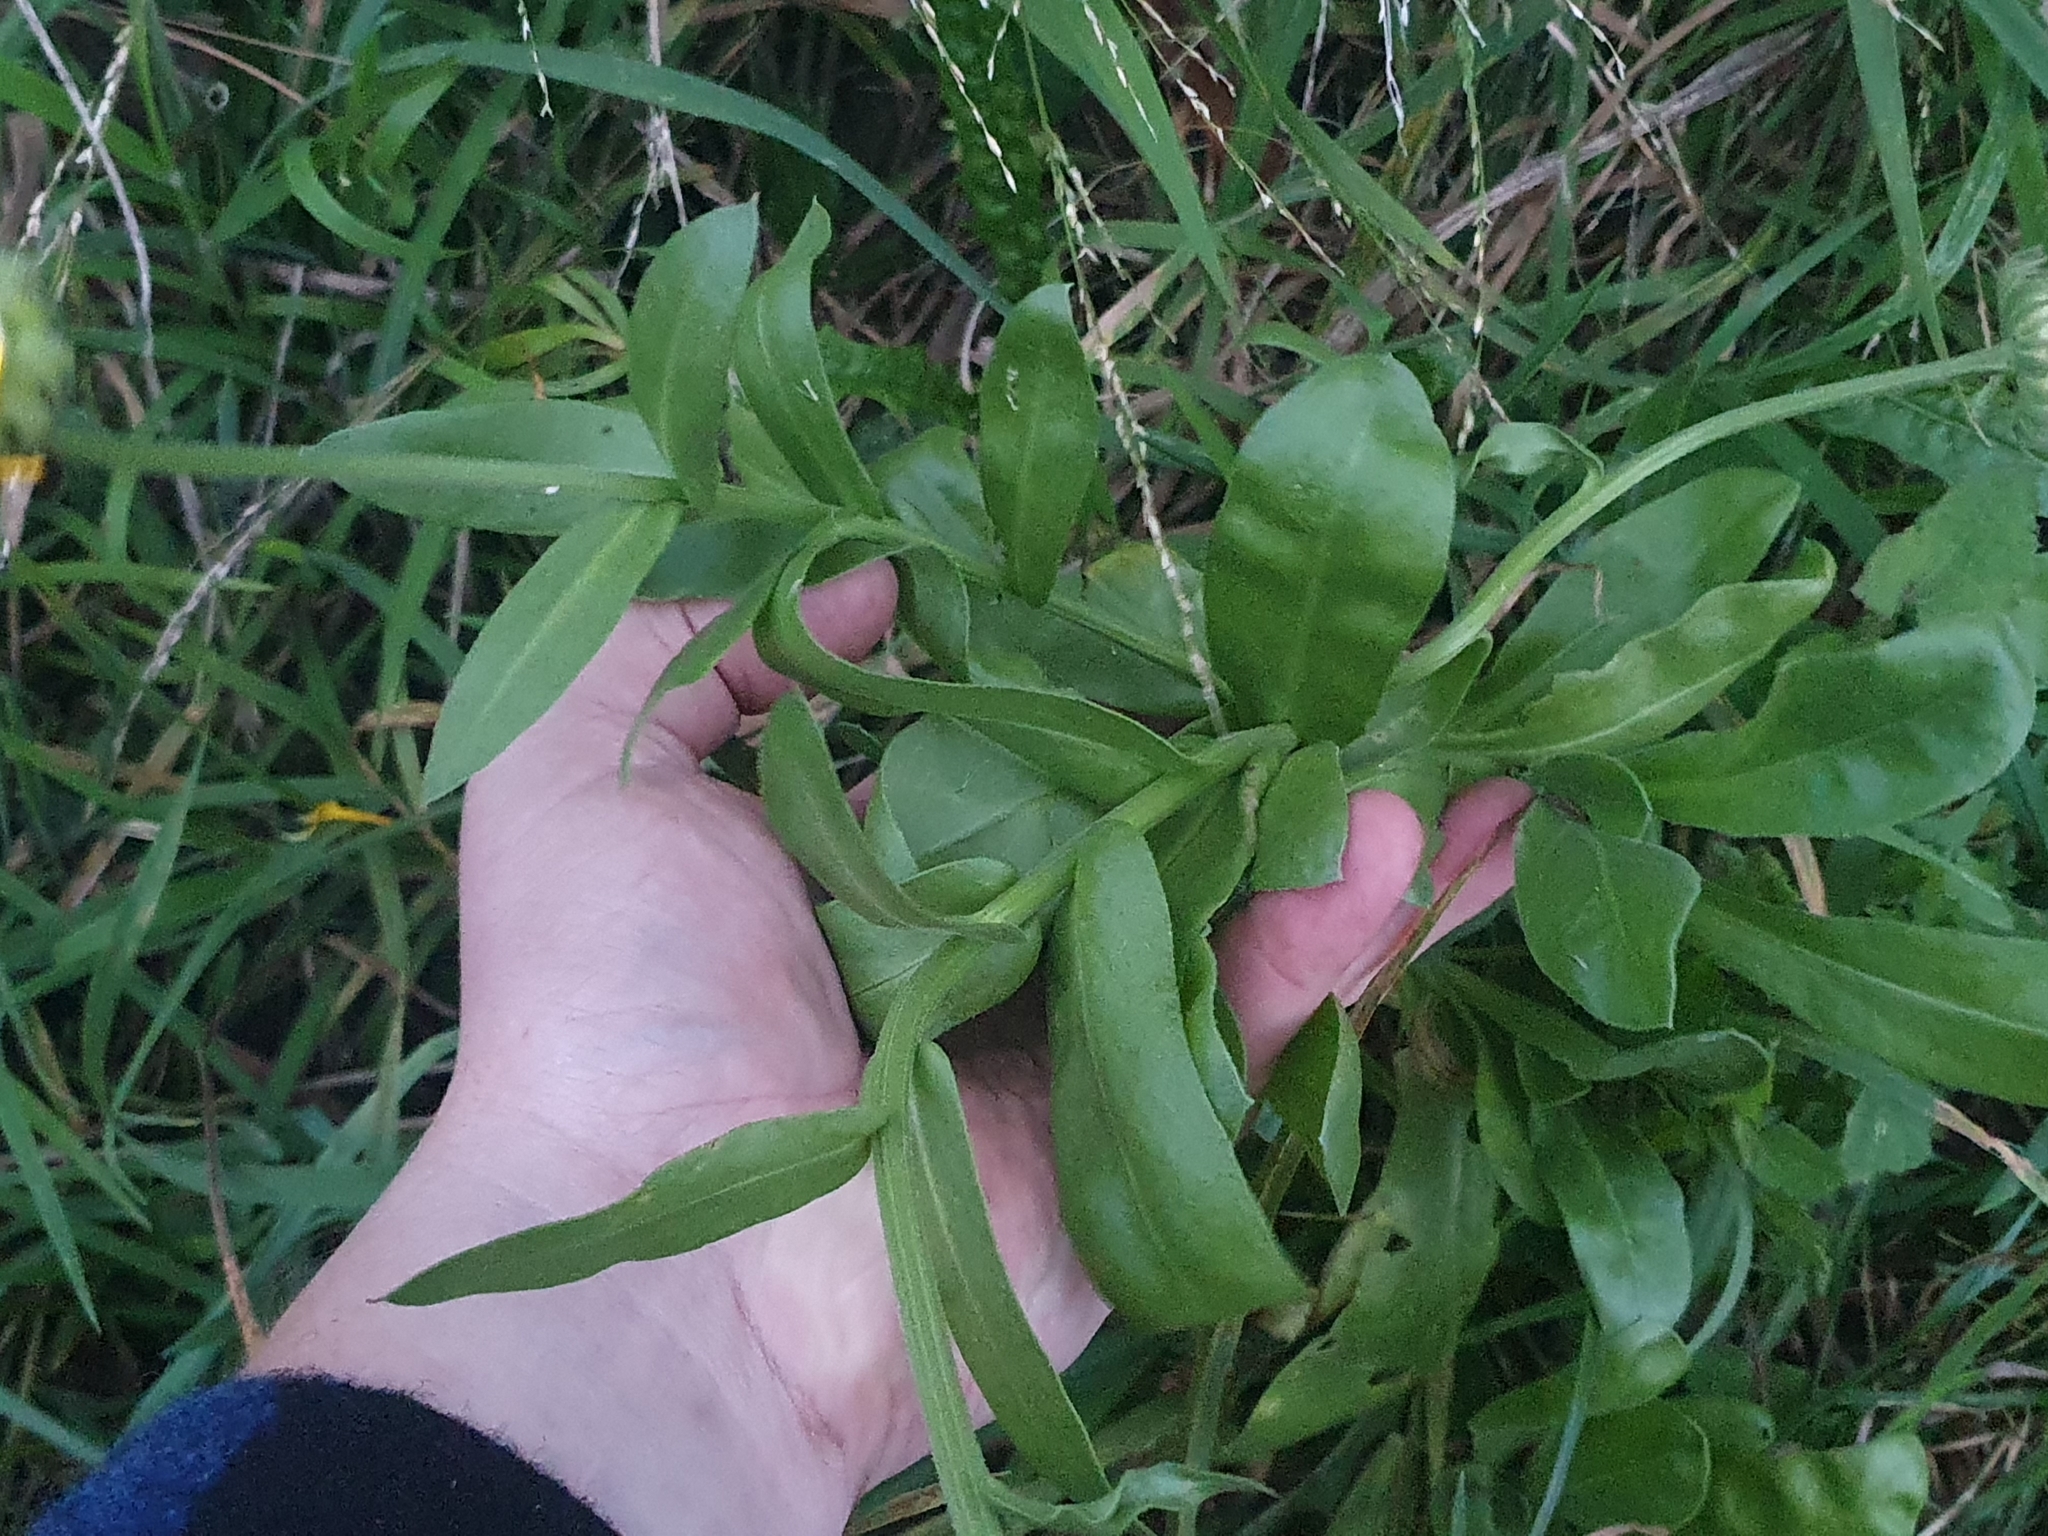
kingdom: Plantae
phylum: Tracheophyta
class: Magnoliopsida
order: Asterales
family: Asteraceae
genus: Calendula
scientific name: Calendula officinalis
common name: Pot marigold
